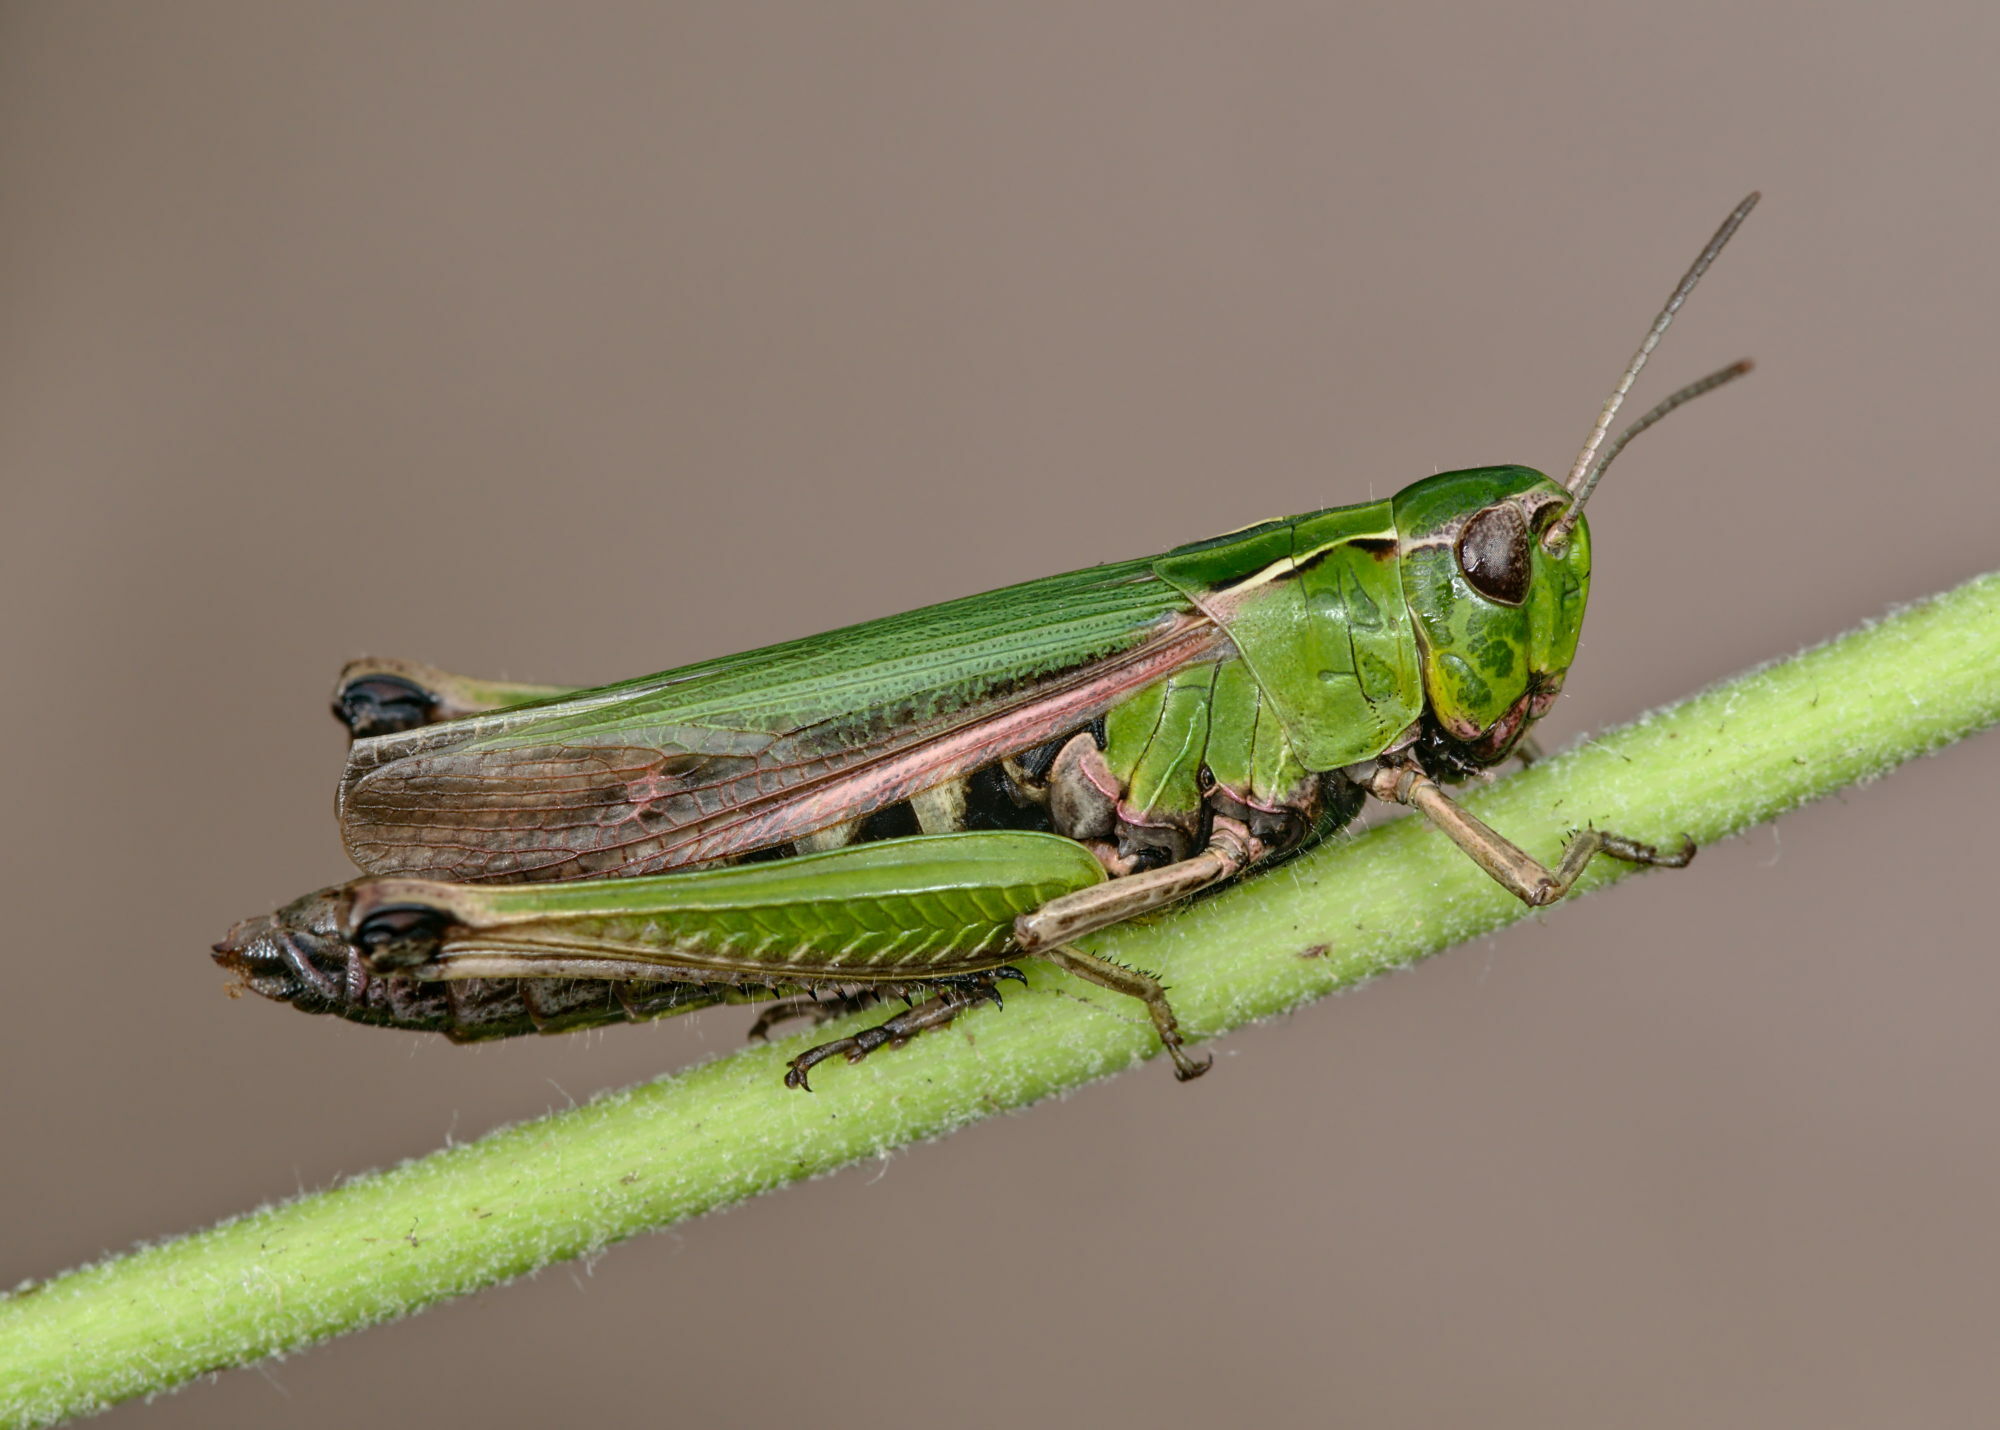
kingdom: Animalia
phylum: Arthropoda
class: Insecta
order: Orthoptera
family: Acrididae
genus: Omocestus
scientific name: Omocestus viridulus
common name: Common green grasshopper
